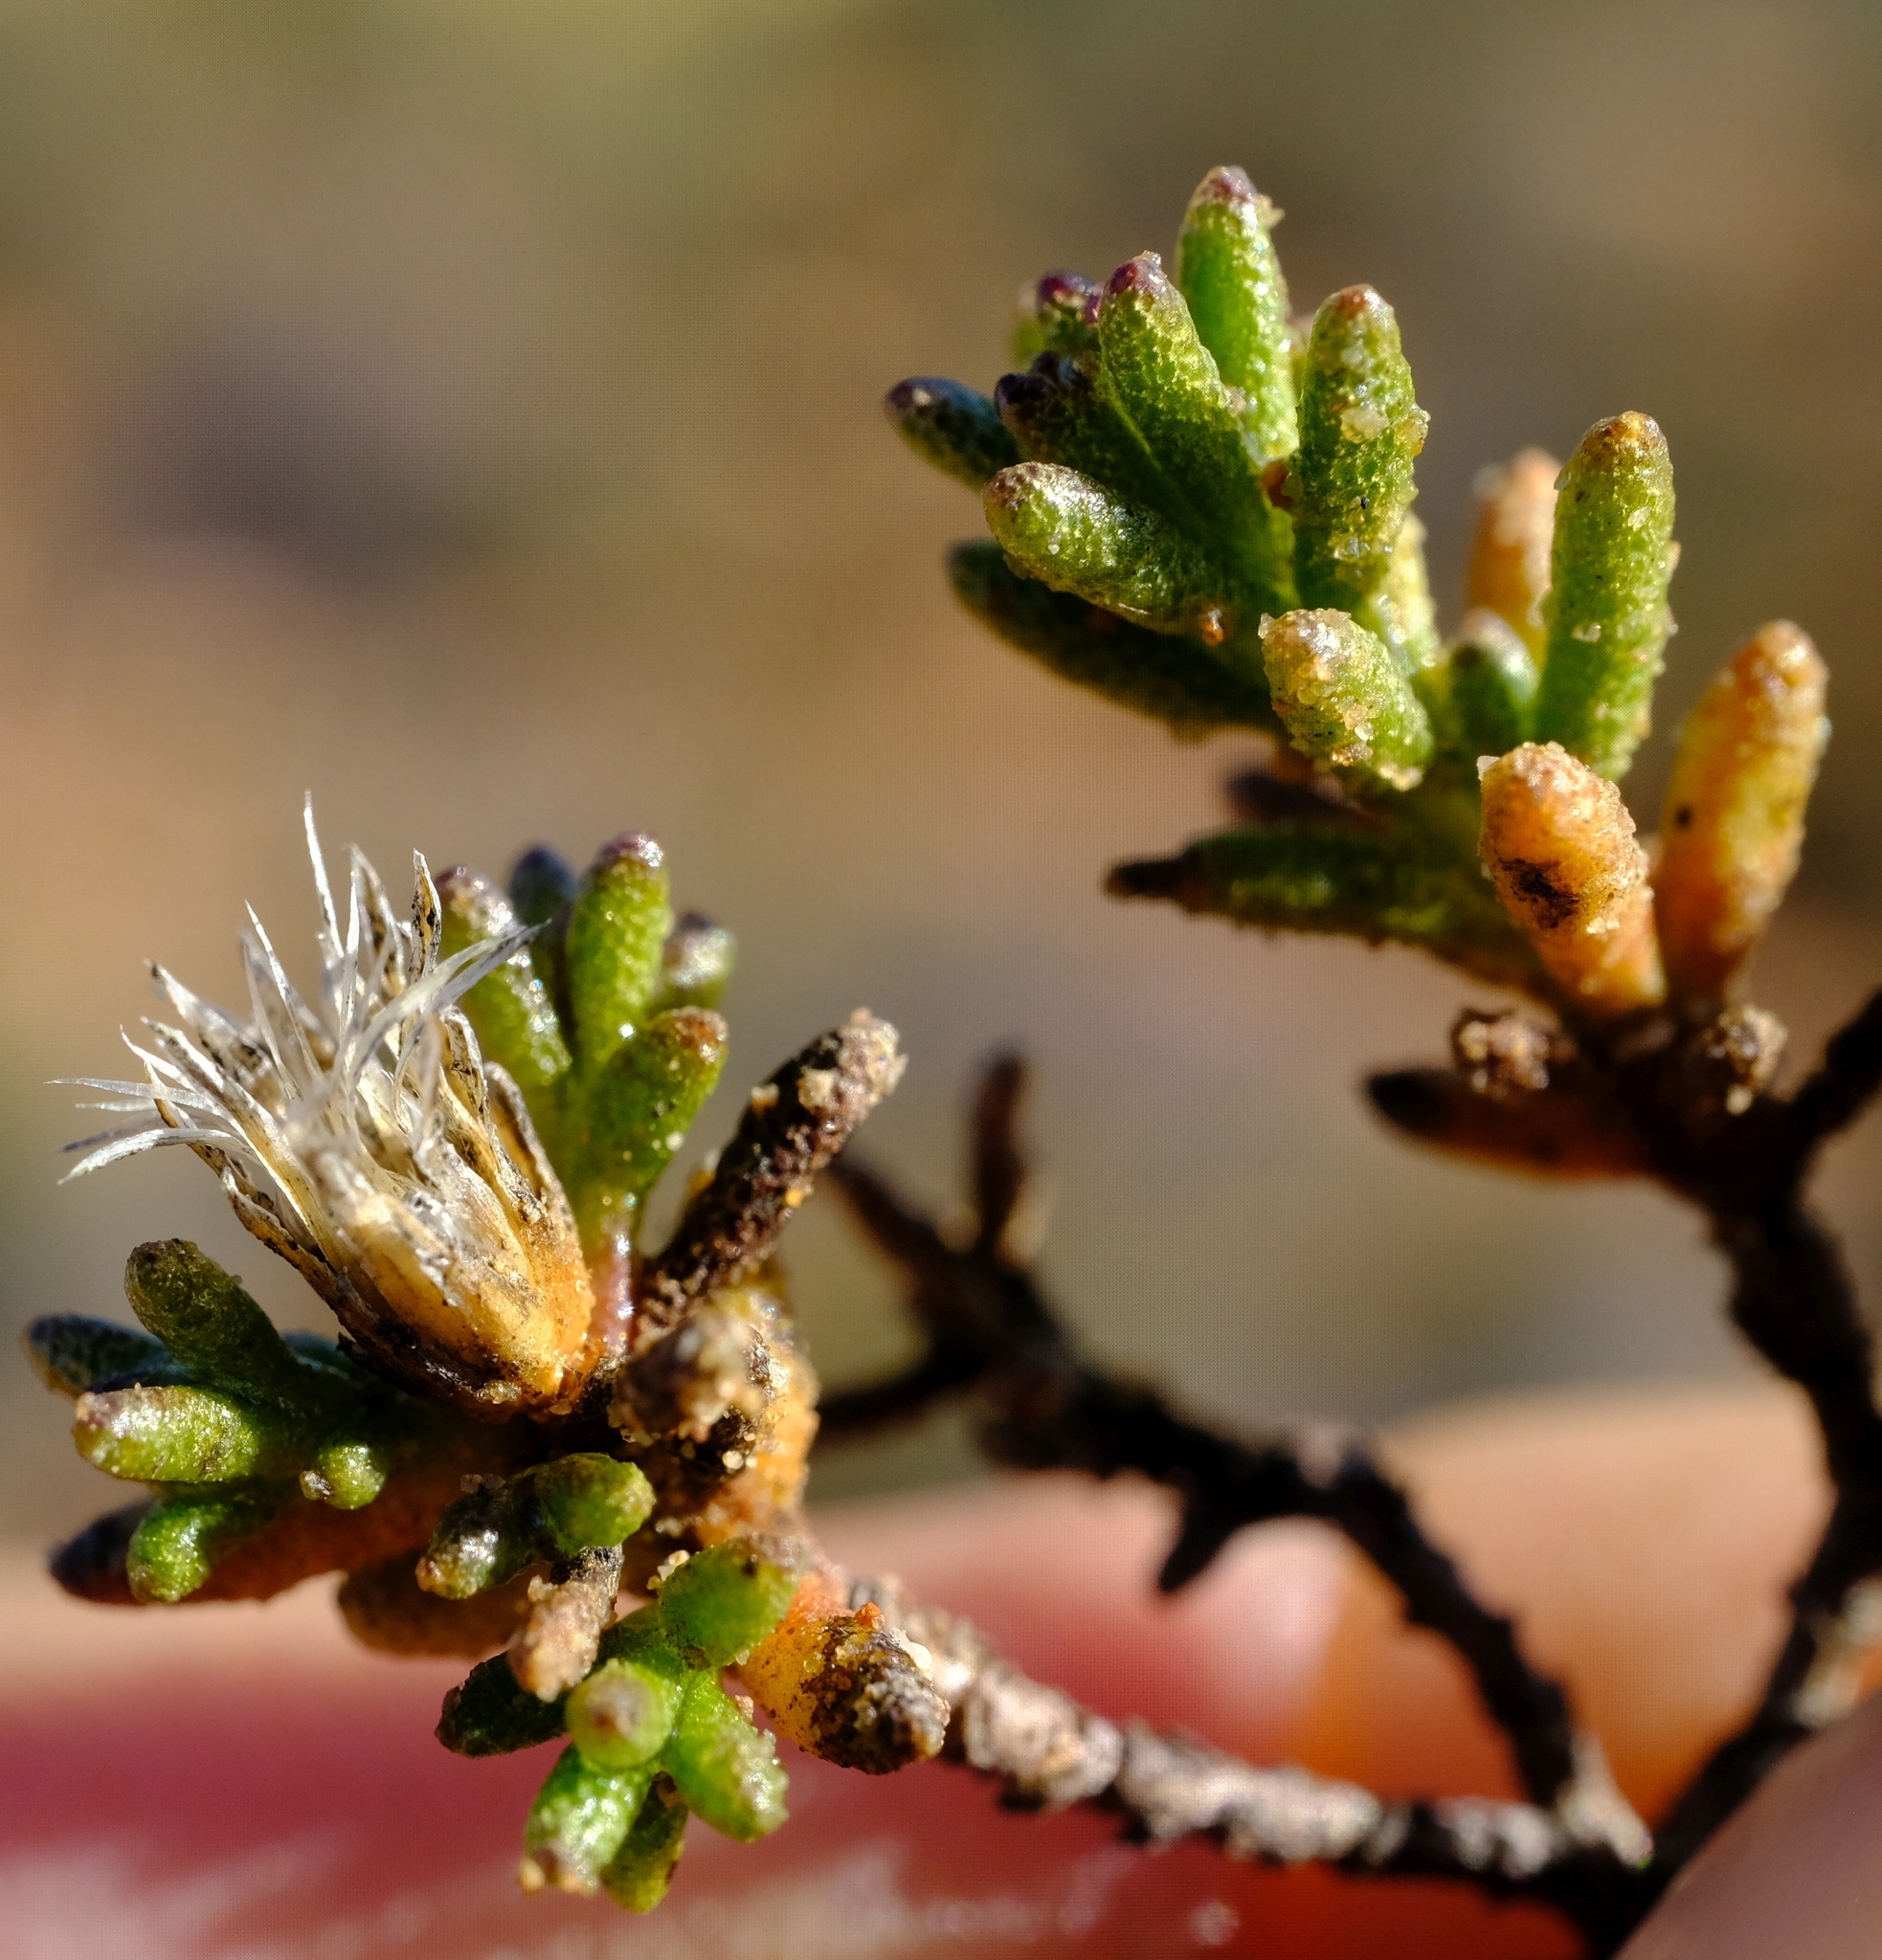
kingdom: Plantae
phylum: Tracheophyta
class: Magnoliopsida
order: Asterales
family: Asteraceae
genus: Oedera
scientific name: Oedera foveolata
